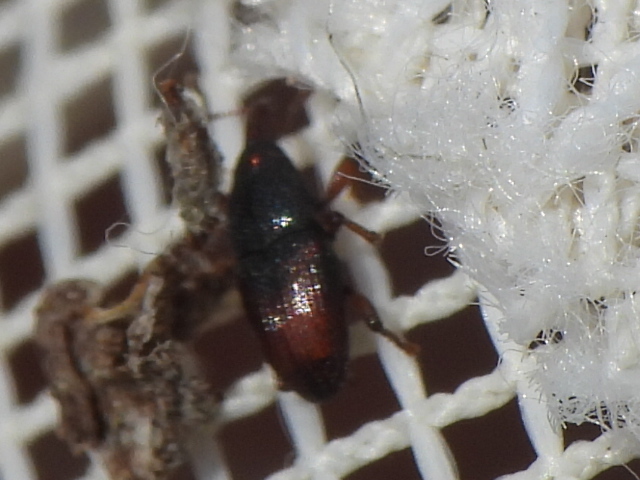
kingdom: Animalia
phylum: Arthropoda
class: Insecta
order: Coleoptera
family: Curculionidae
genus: Apinocis
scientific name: Apinocis
